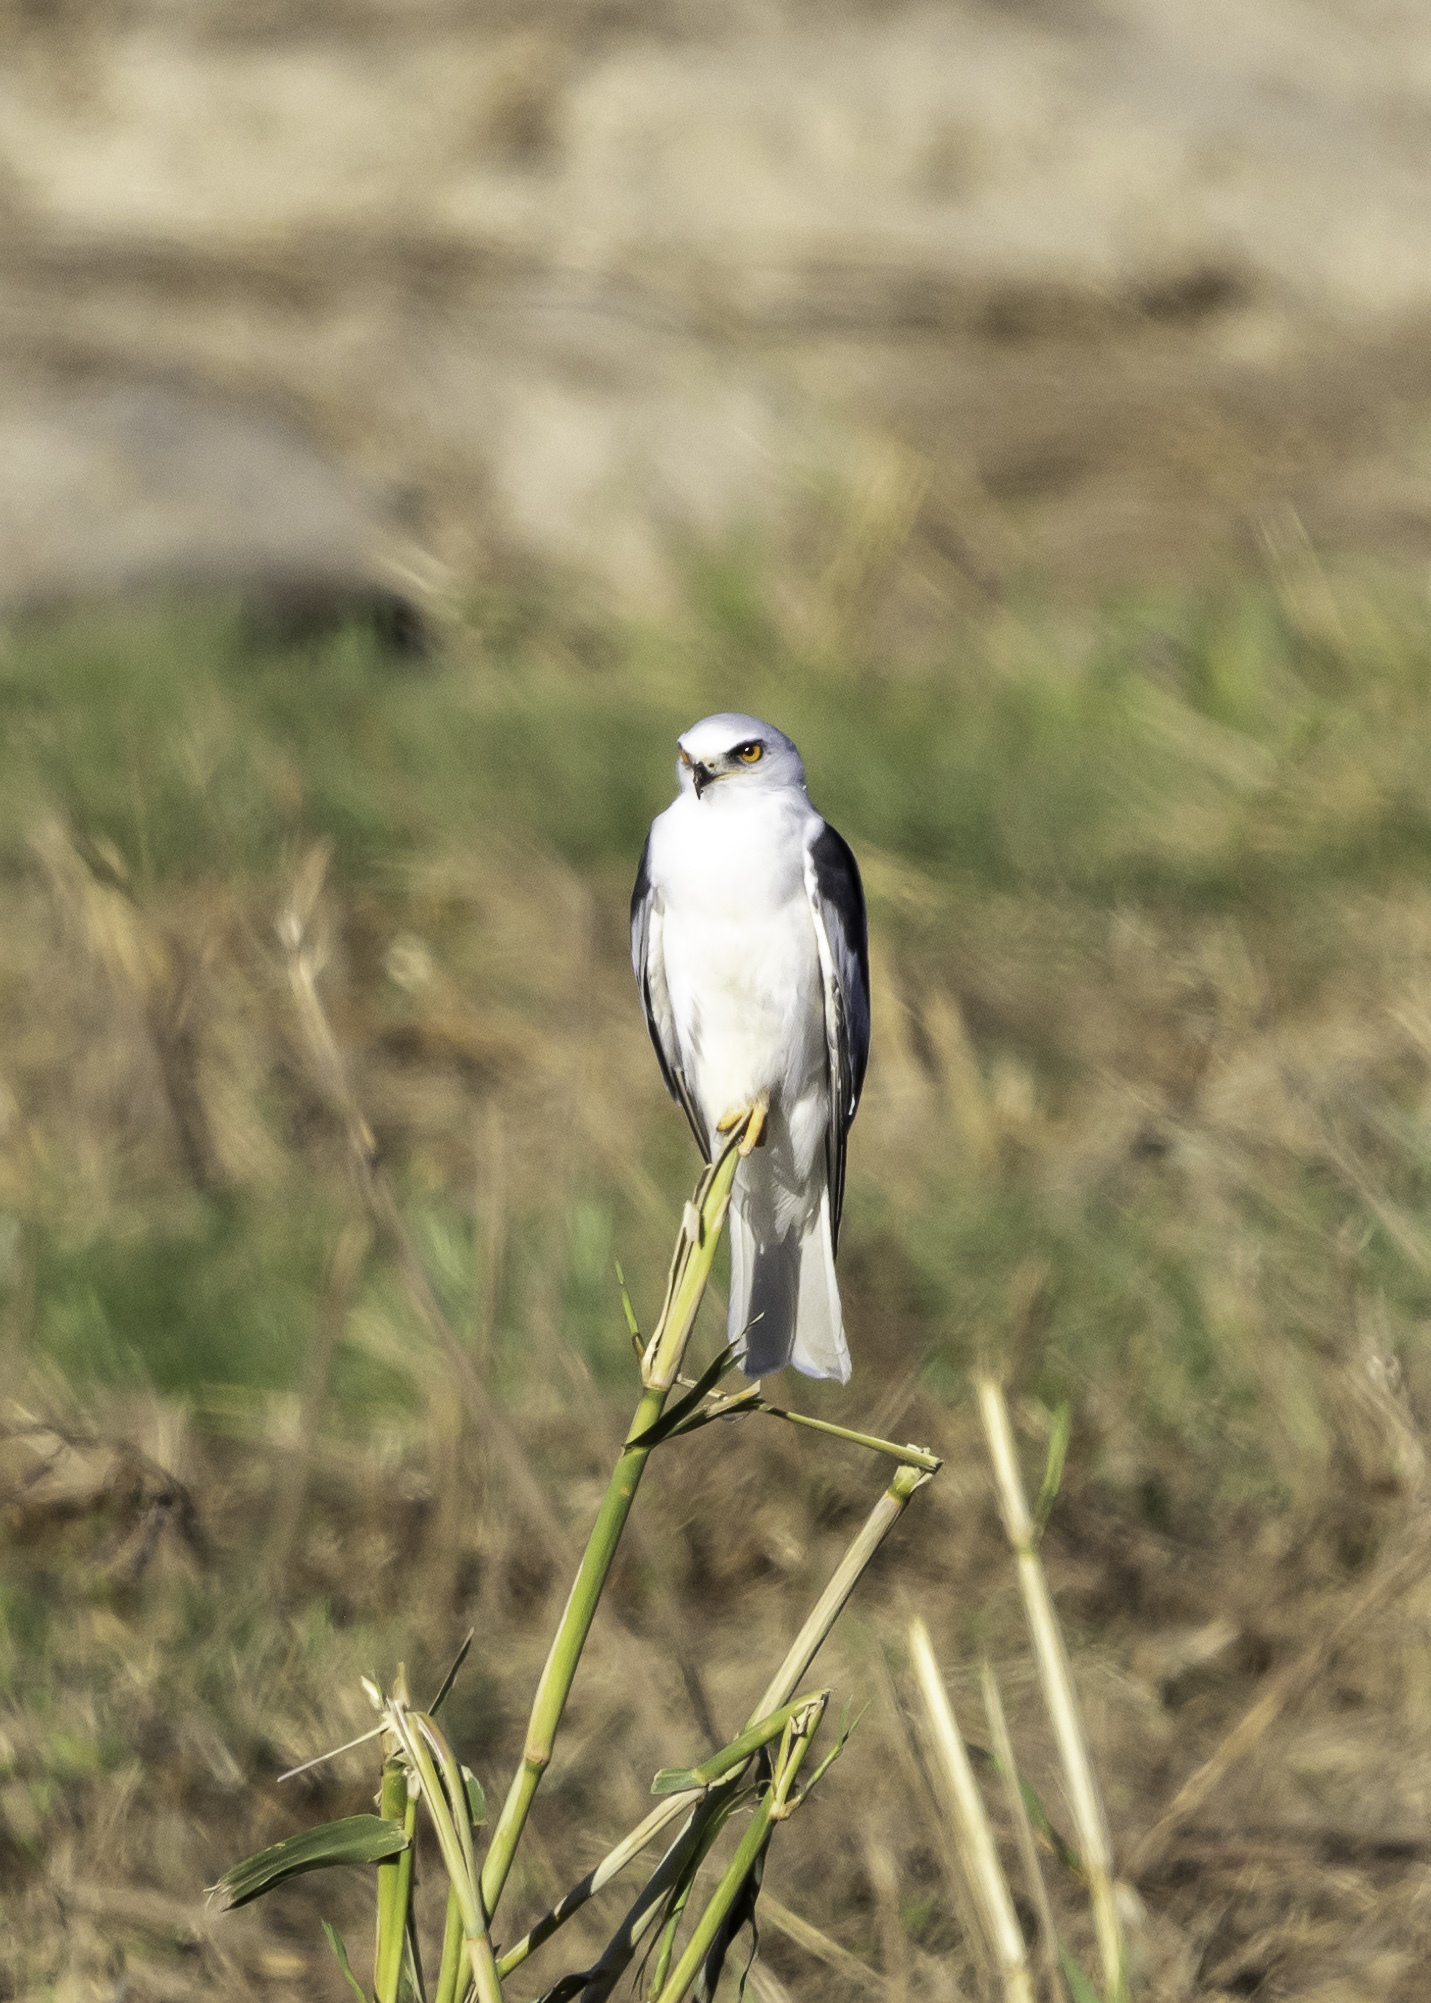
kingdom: Animalia
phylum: Chordata
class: Aves
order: Accipitriformes
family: Accipitridae
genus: Elanus
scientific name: Elanus leucurus
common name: White-tailed kite
